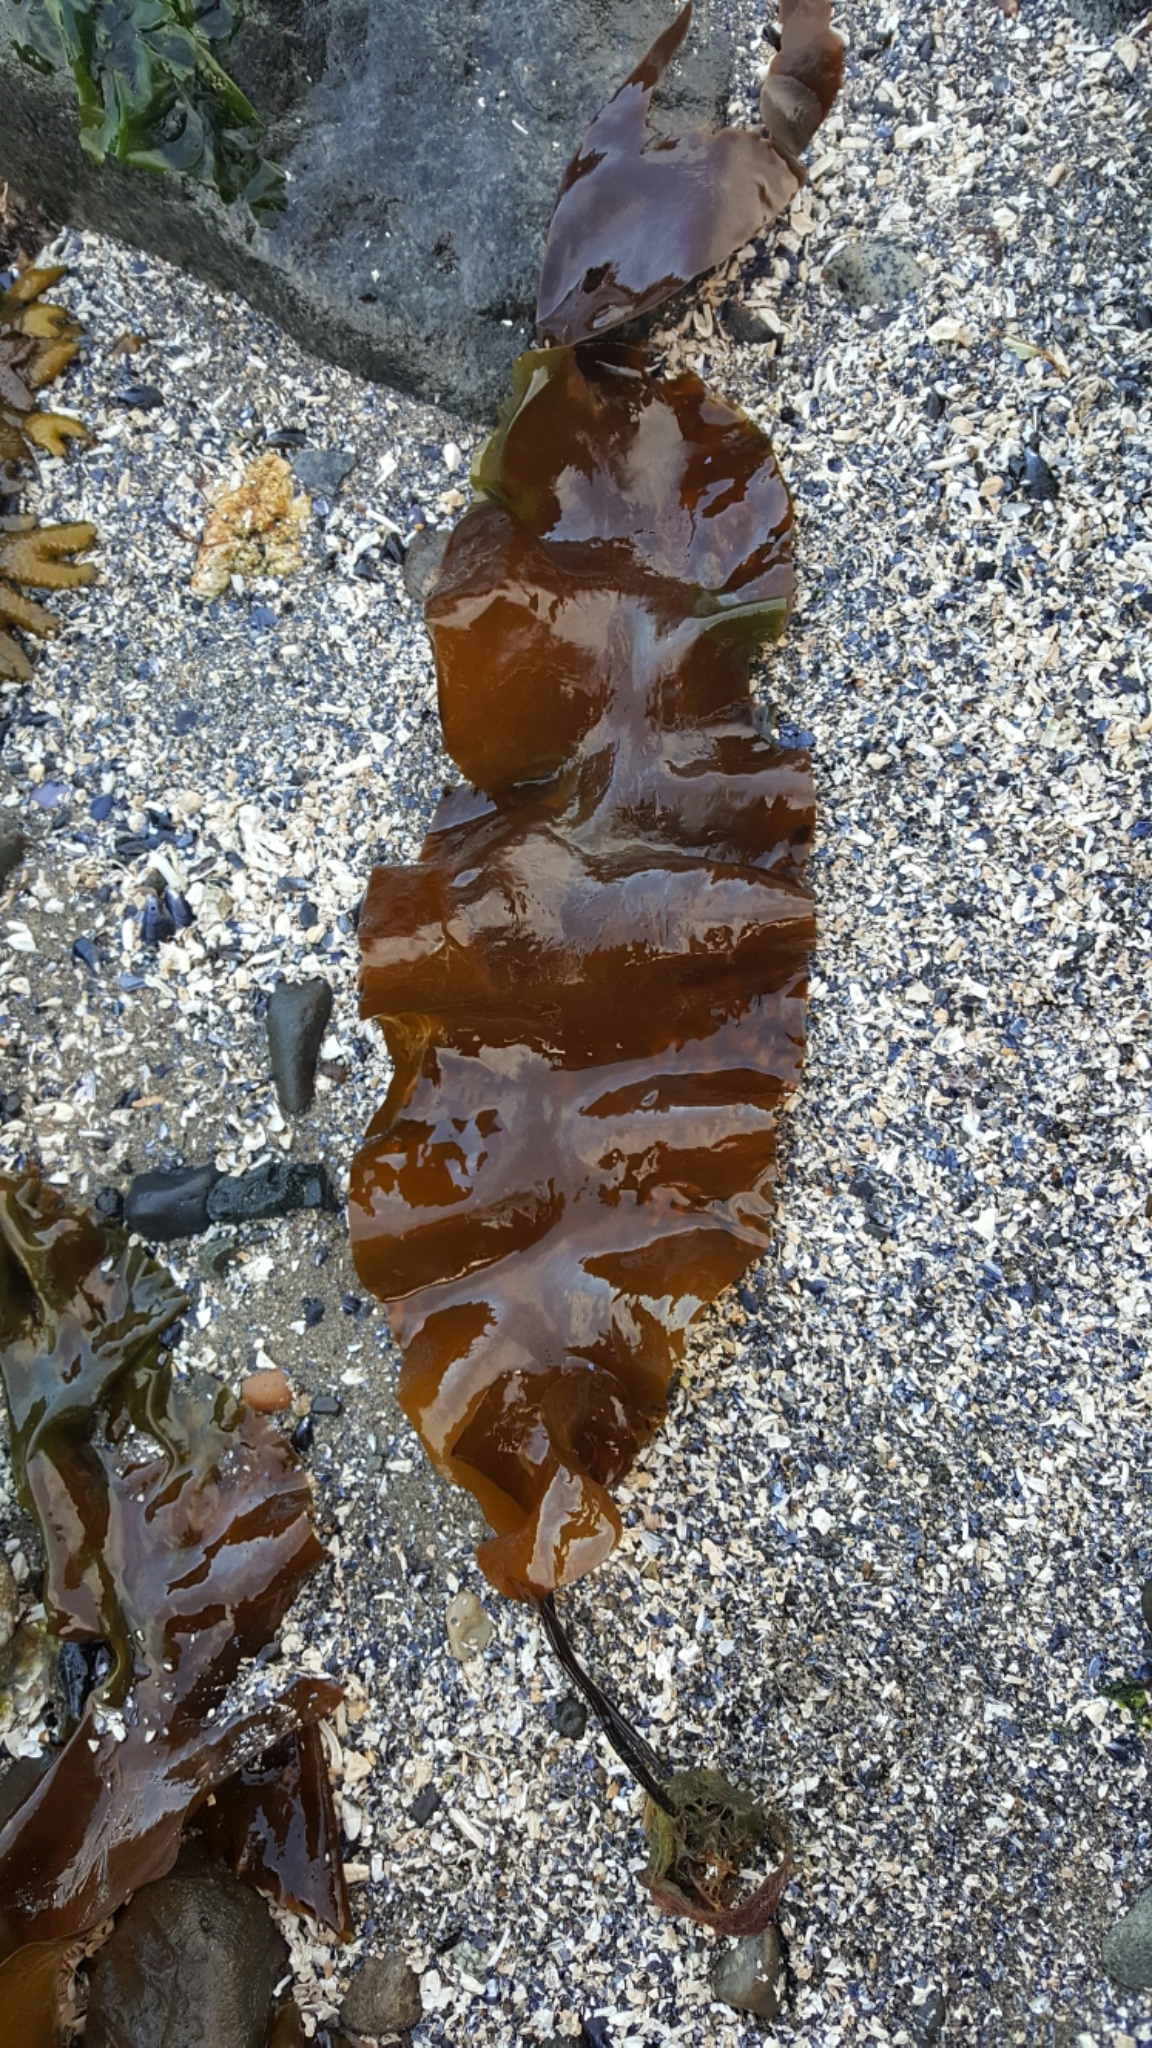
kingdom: Chromista
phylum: Ochrophyta
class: Phaeophyceae
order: Laminariales
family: Laminariaceae
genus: Saccharina
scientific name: Saccharina latissima
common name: Poor man's weather glass
